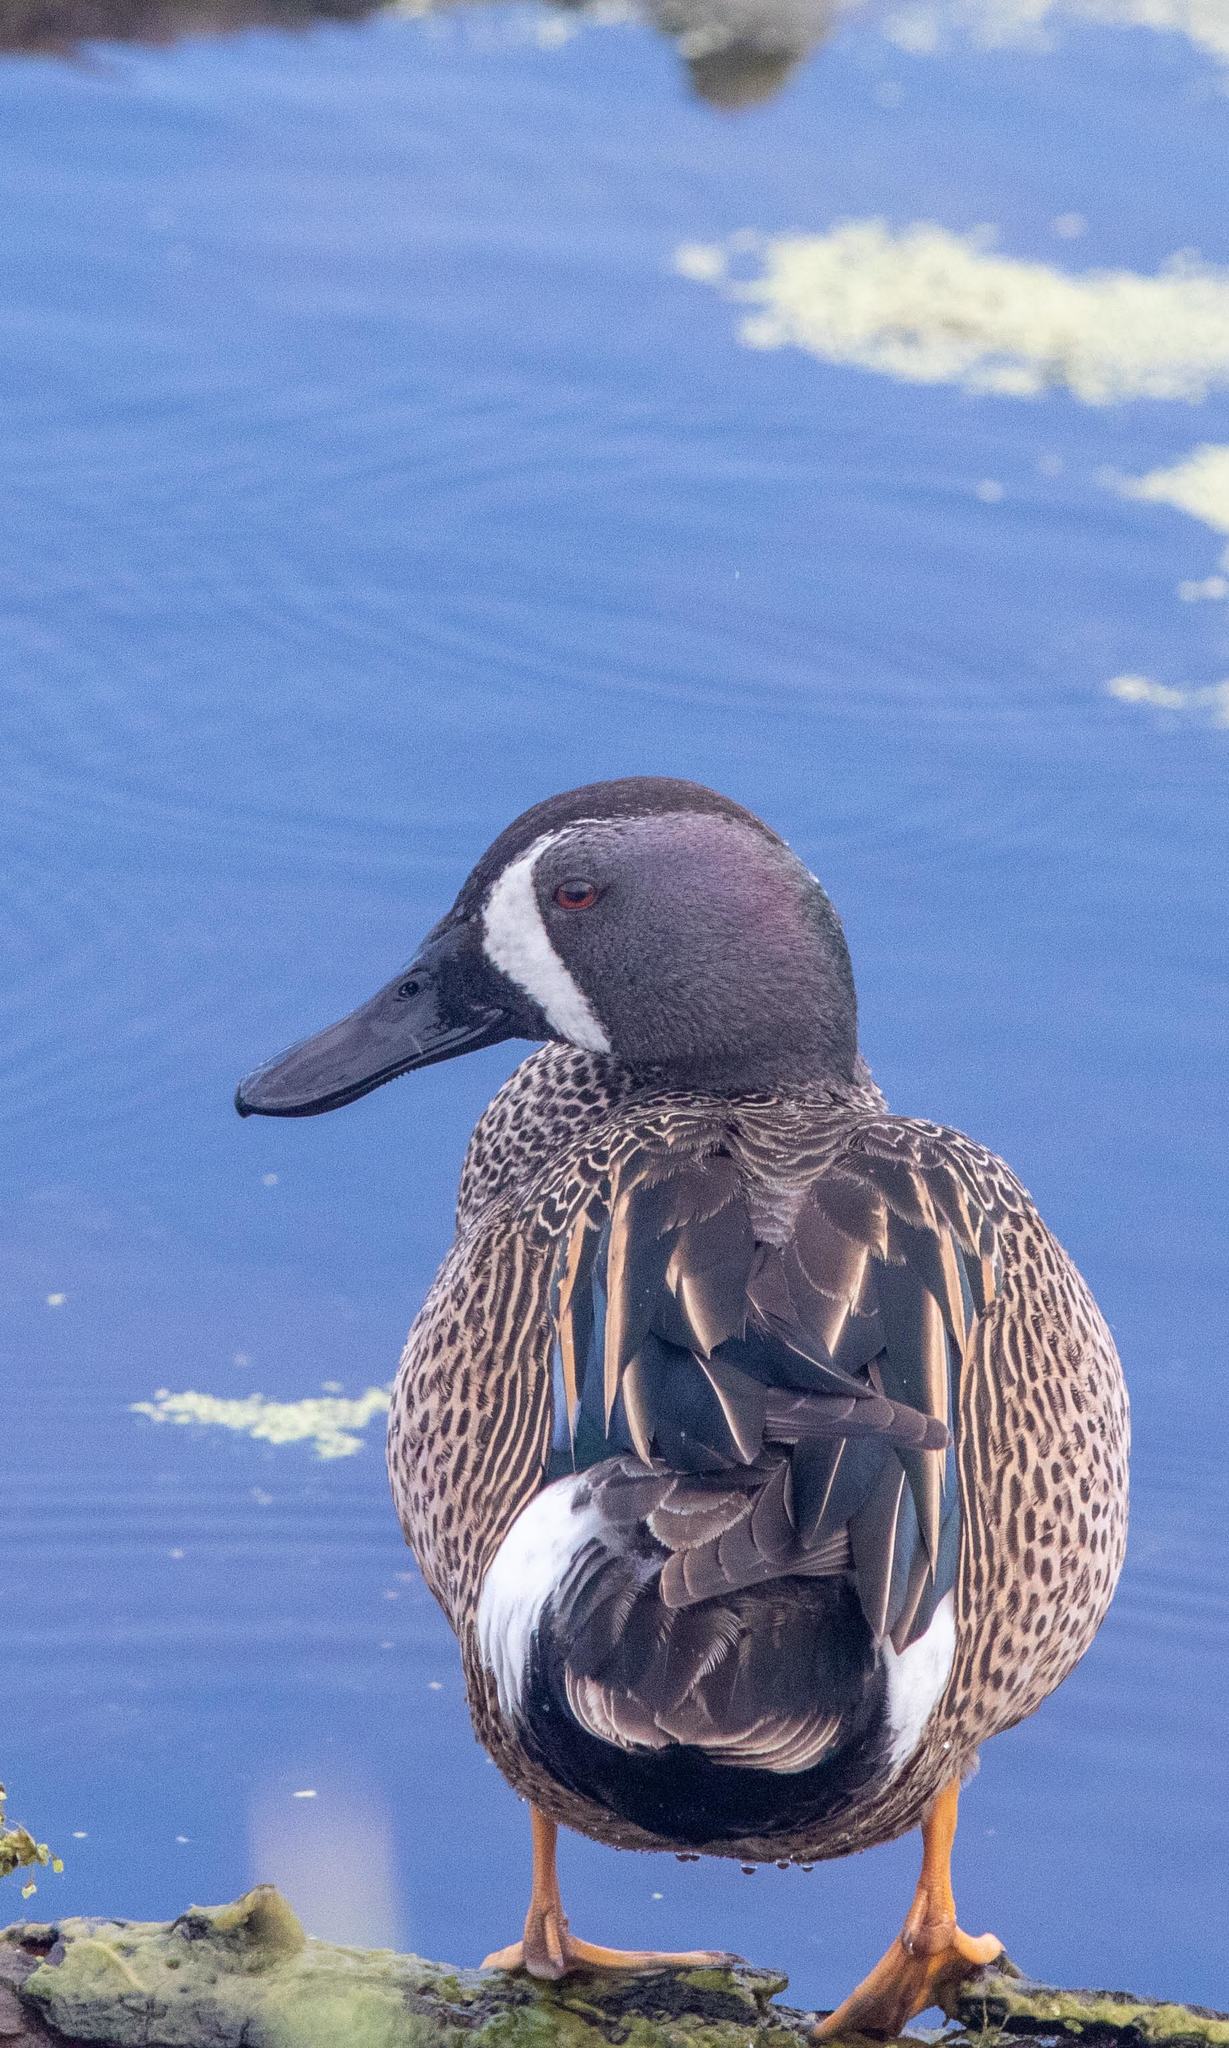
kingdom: Animalia
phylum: Chordata
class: Aves
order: Anseriformes
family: Anatidae
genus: Spatula
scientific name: Spatula discors
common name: Blue-winged teal
